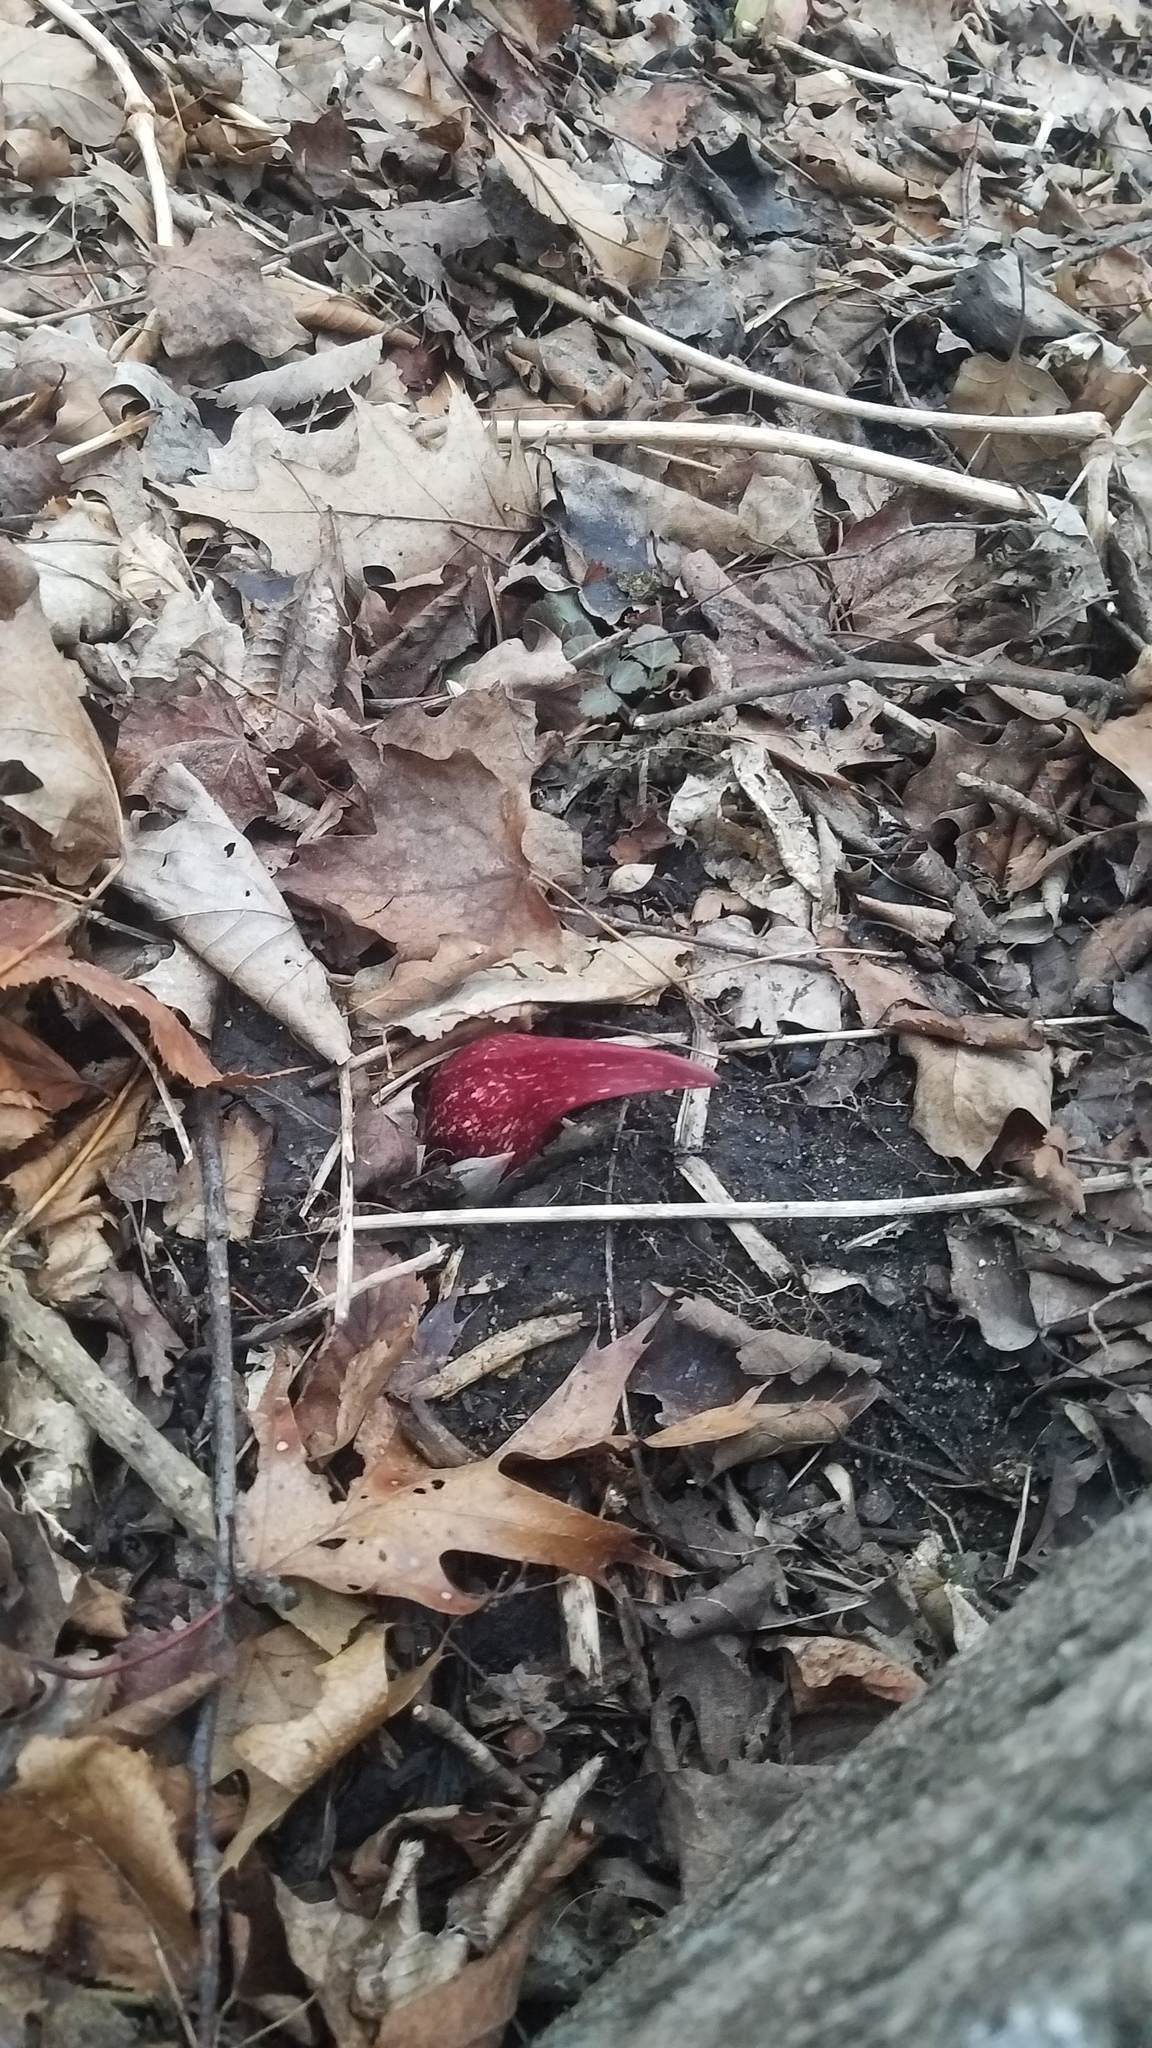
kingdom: Plantae
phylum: Tracheophyta
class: Liliopsida
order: Alismatales
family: Araceae
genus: Symplocarpus
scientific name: Symplocarpus foetidus
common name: Eastern skunk cabbage
